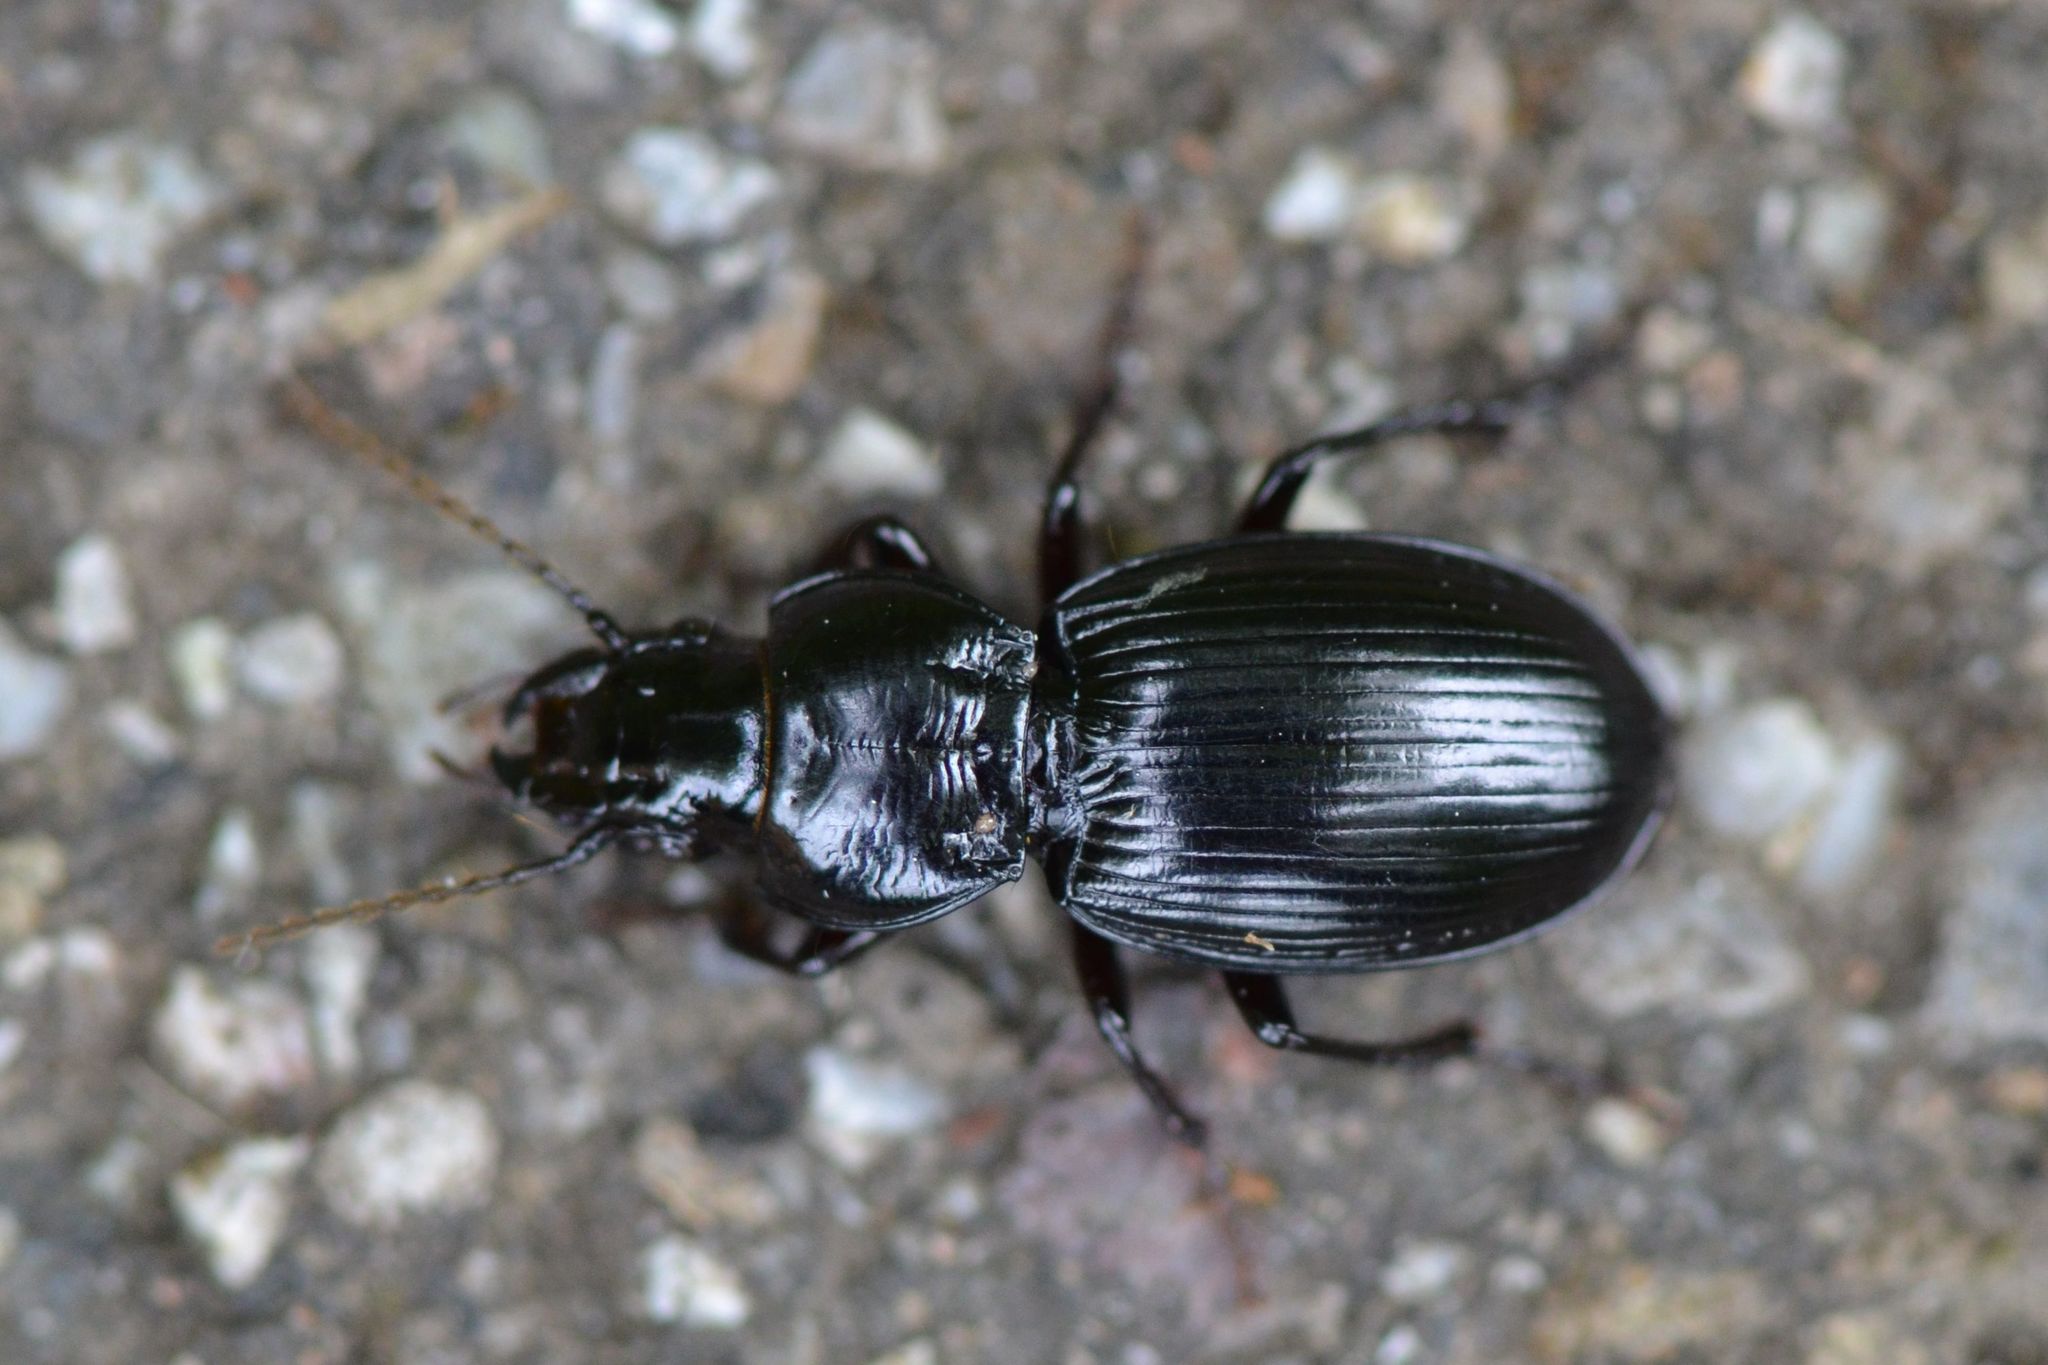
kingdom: Animalia
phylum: Arthropoda
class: Insecta
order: Coleoptera
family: Carabidae
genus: Molops
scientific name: Molops elatus
